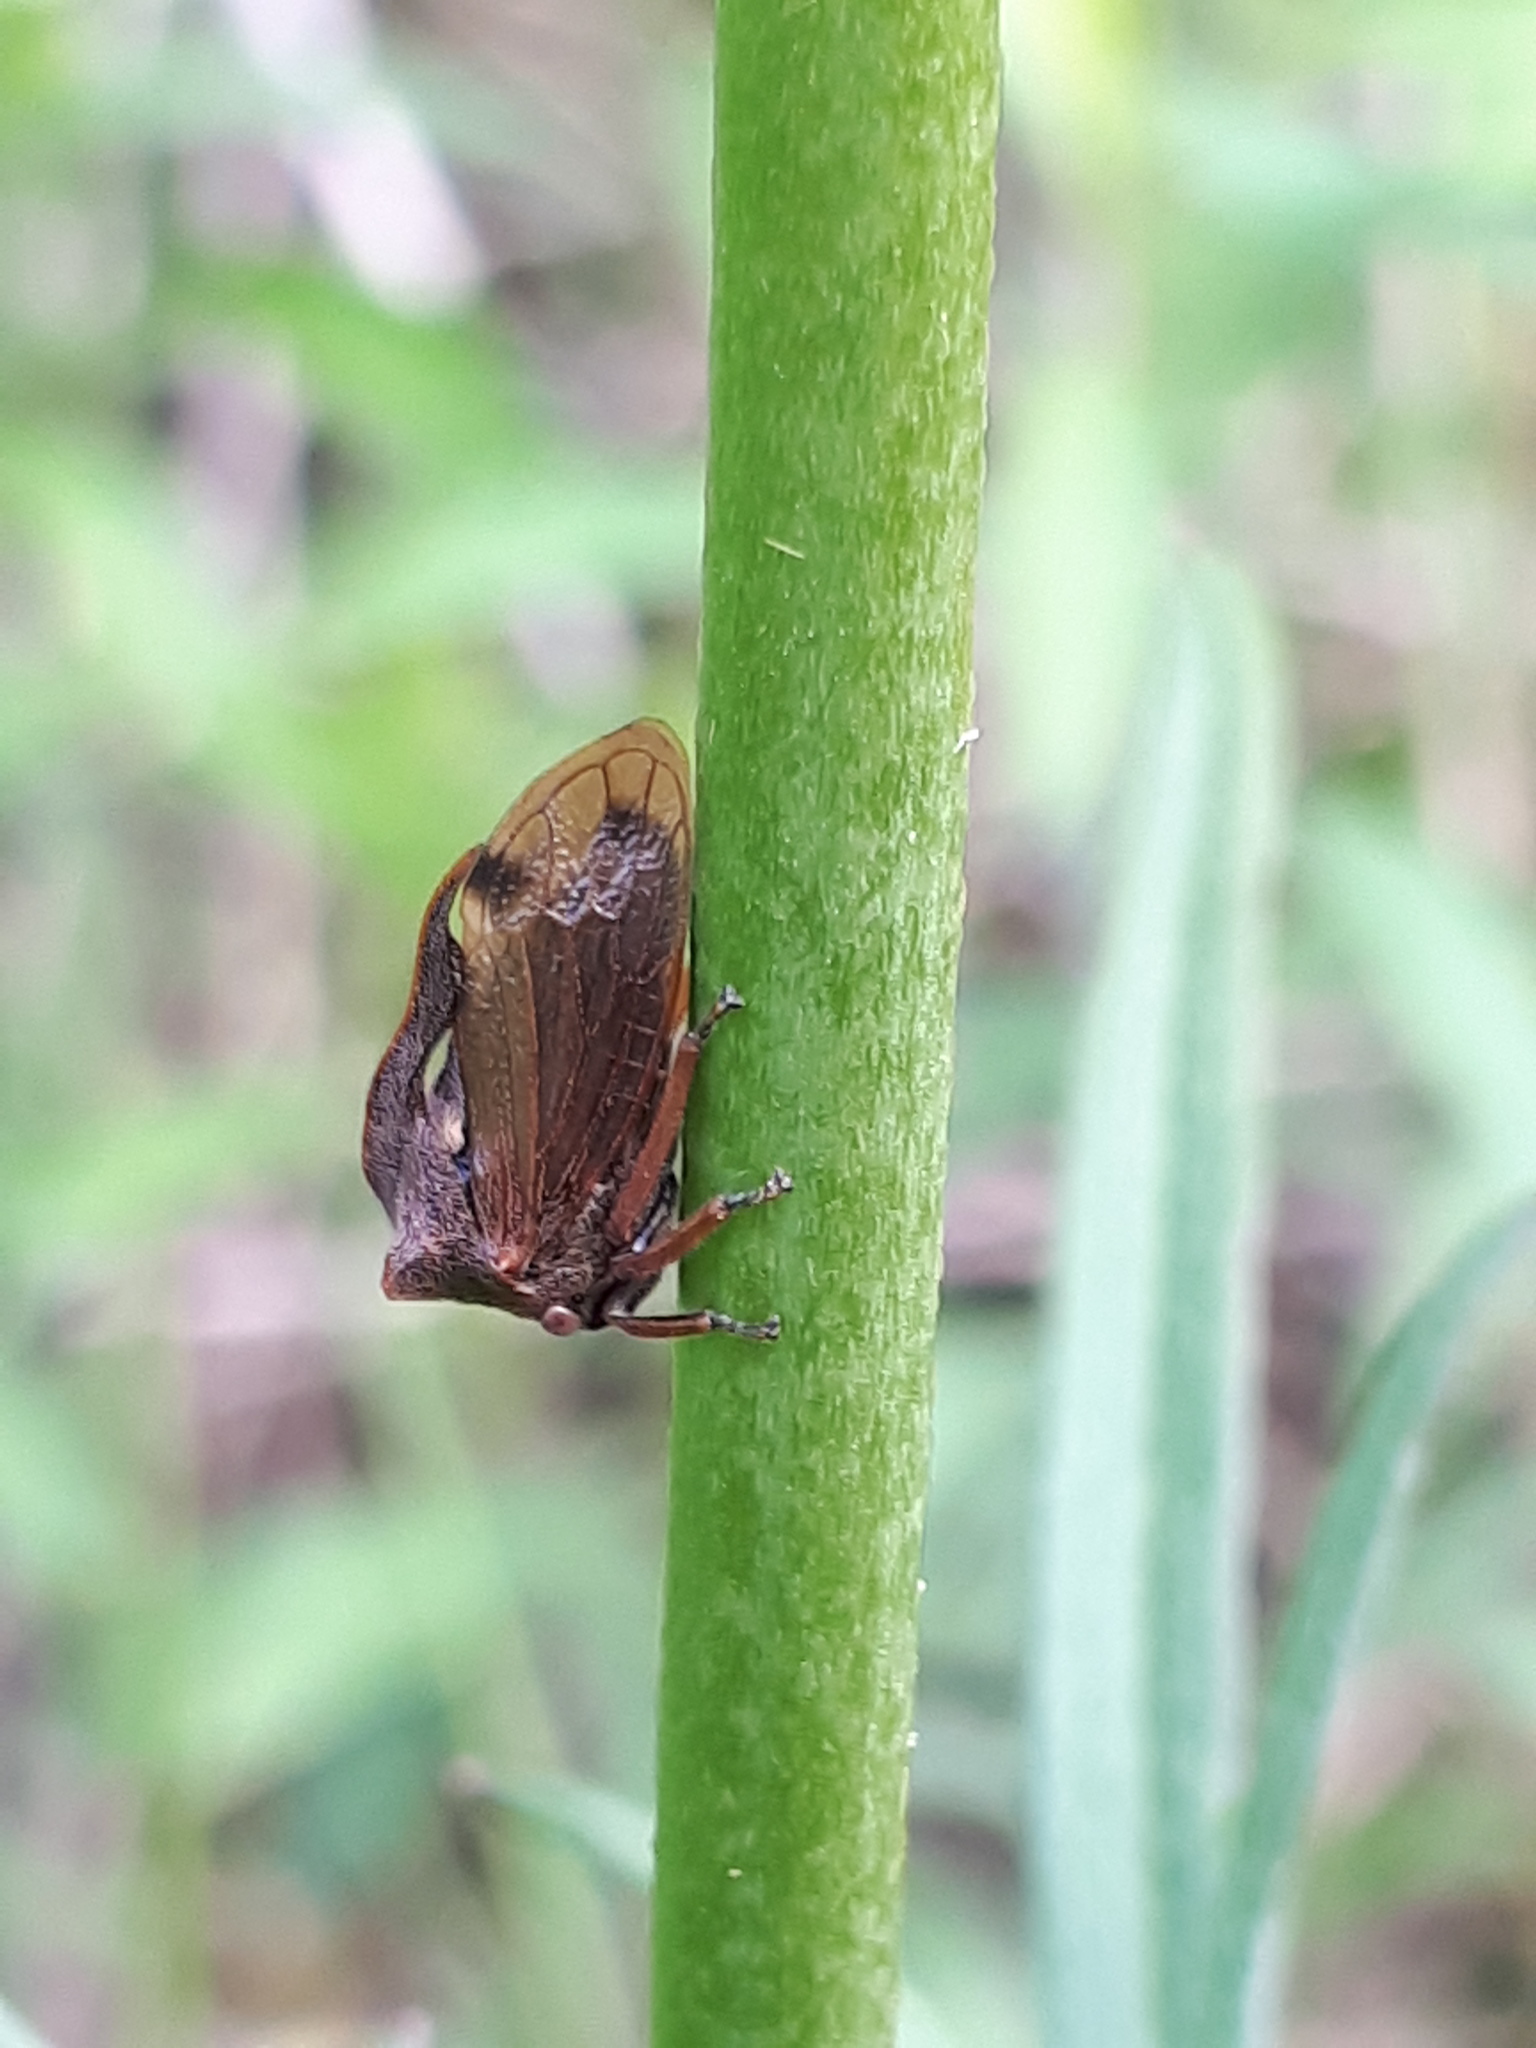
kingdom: Animalia
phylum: Arthropoda
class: Insecta
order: Hemiptera
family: Membracidae
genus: Centrotus
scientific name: Centrotus cornuta
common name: Treehopper
